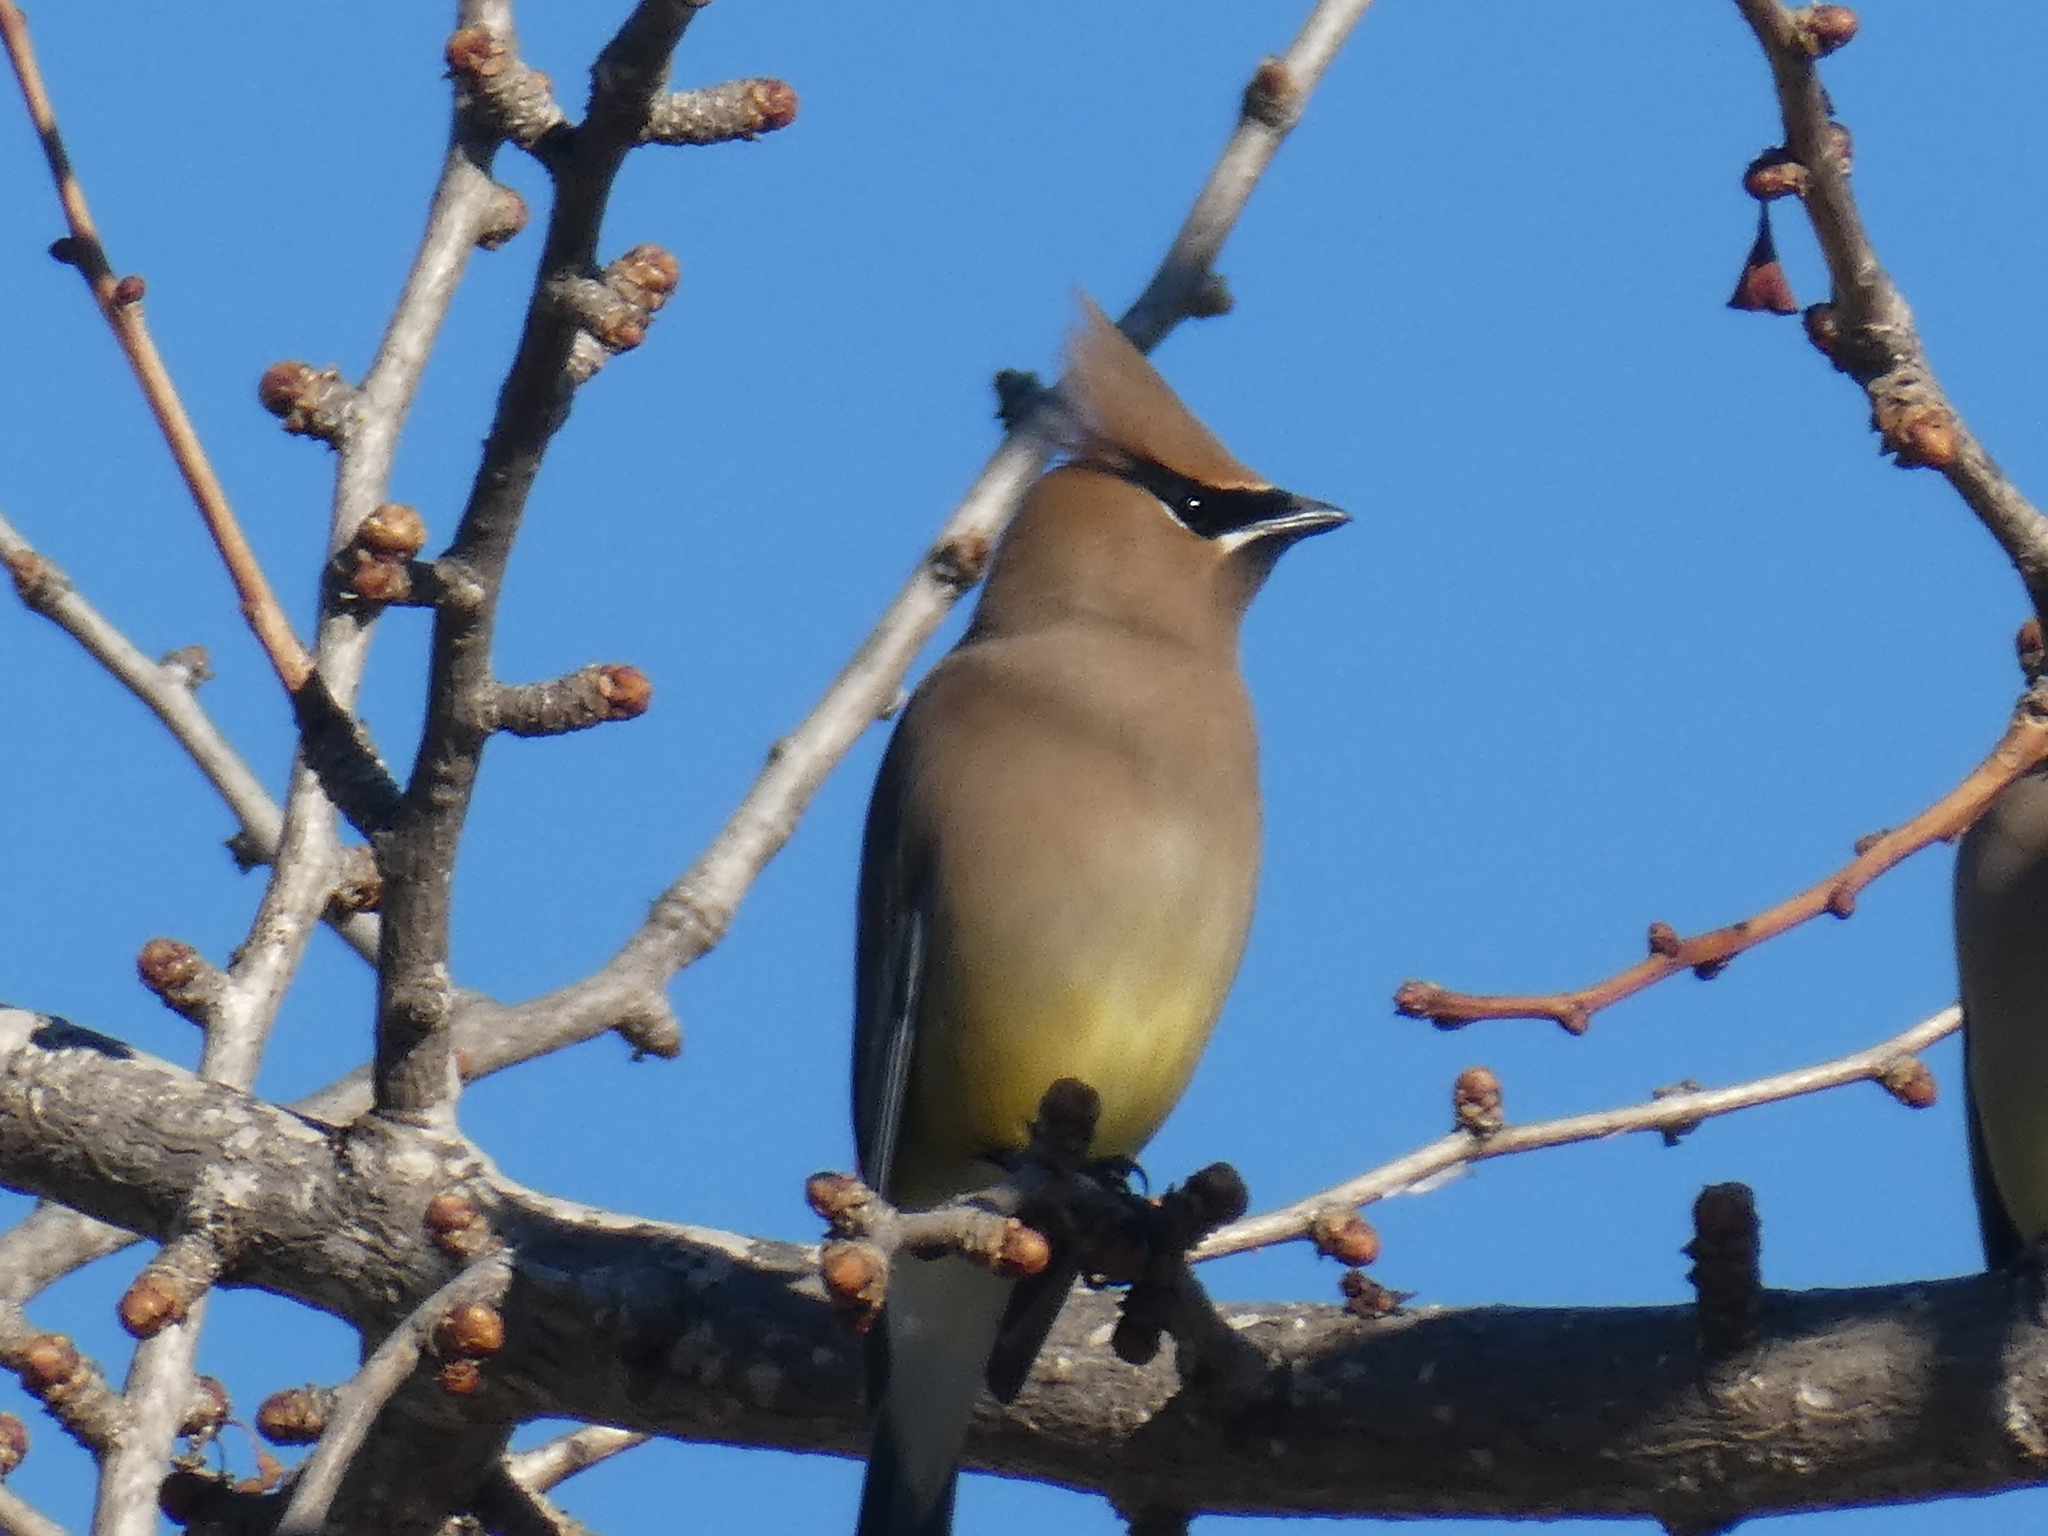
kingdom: Animalia
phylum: Chordata
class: Aves
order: Passeriformes
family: Bombycillidae
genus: Bombycilla
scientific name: Bombycilla cedrorum
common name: Cedar waxwing
